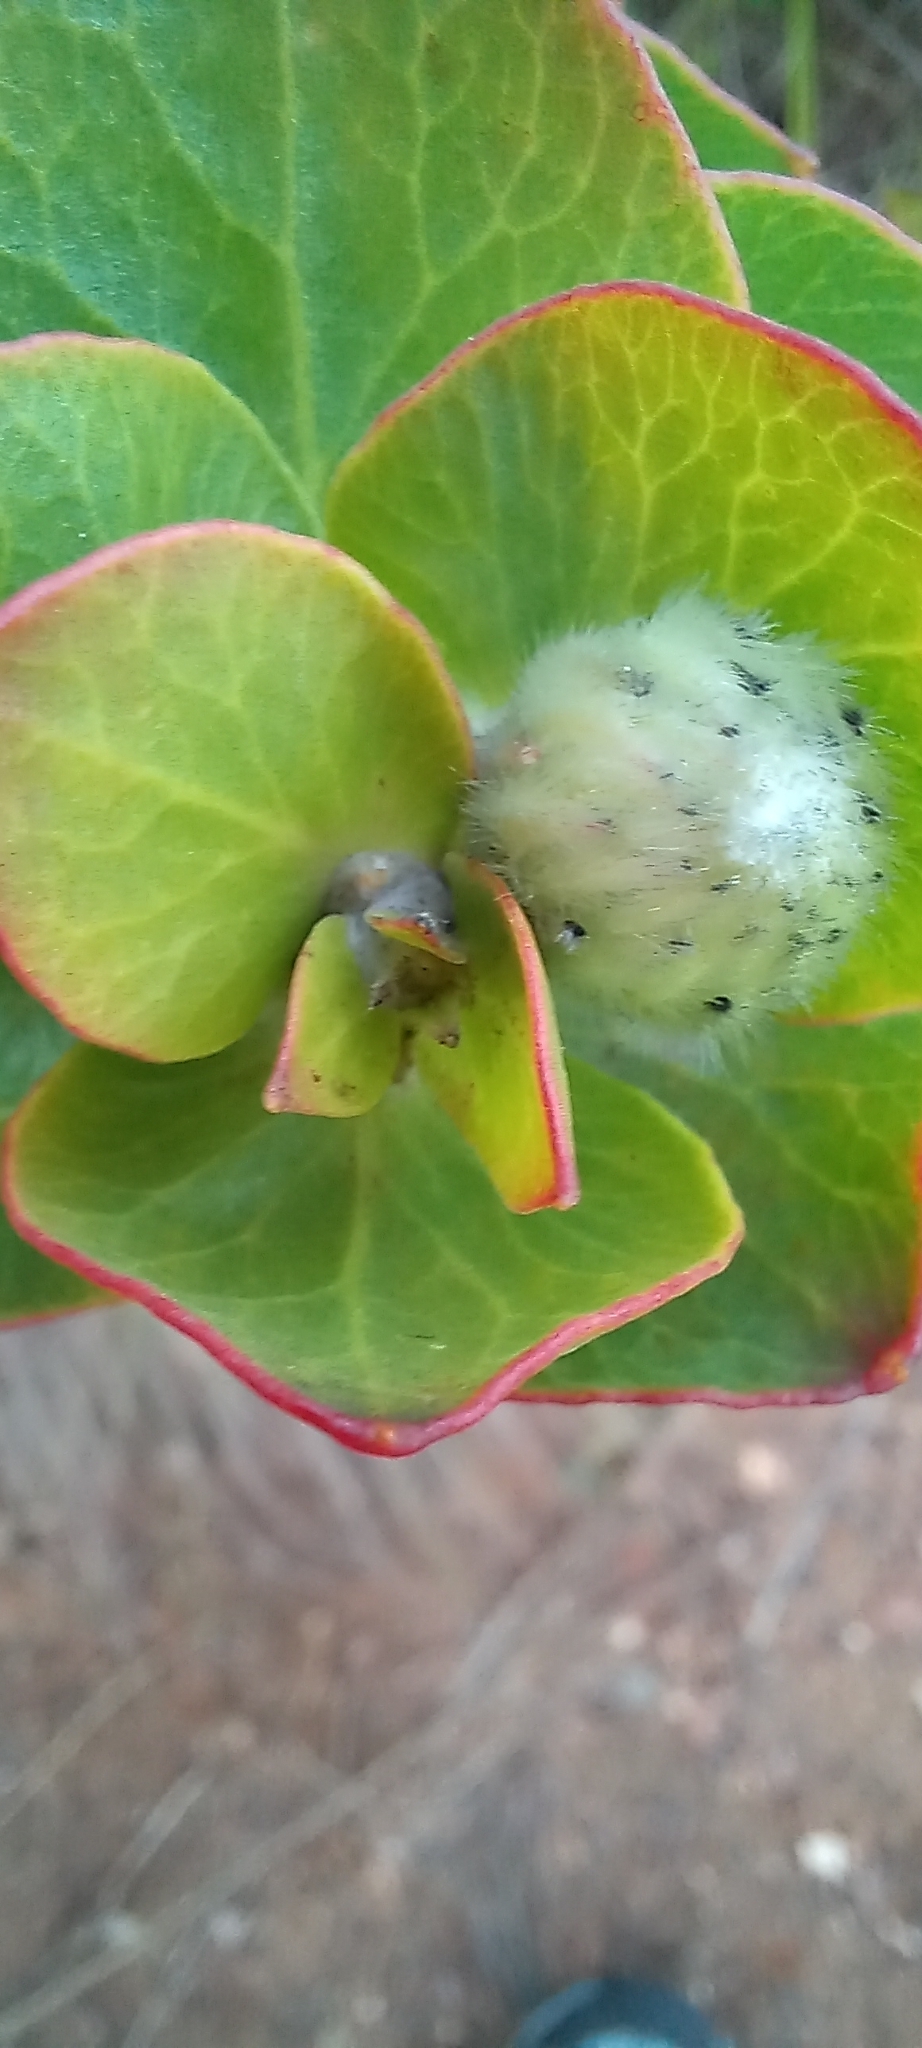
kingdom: Plantae
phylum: Tracheophyta
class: Magnoliopsida
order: Proteales
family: Proteaceae
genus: Leucospermum
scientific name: Leucospermum cordifolium
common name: Red pincushion-protea
